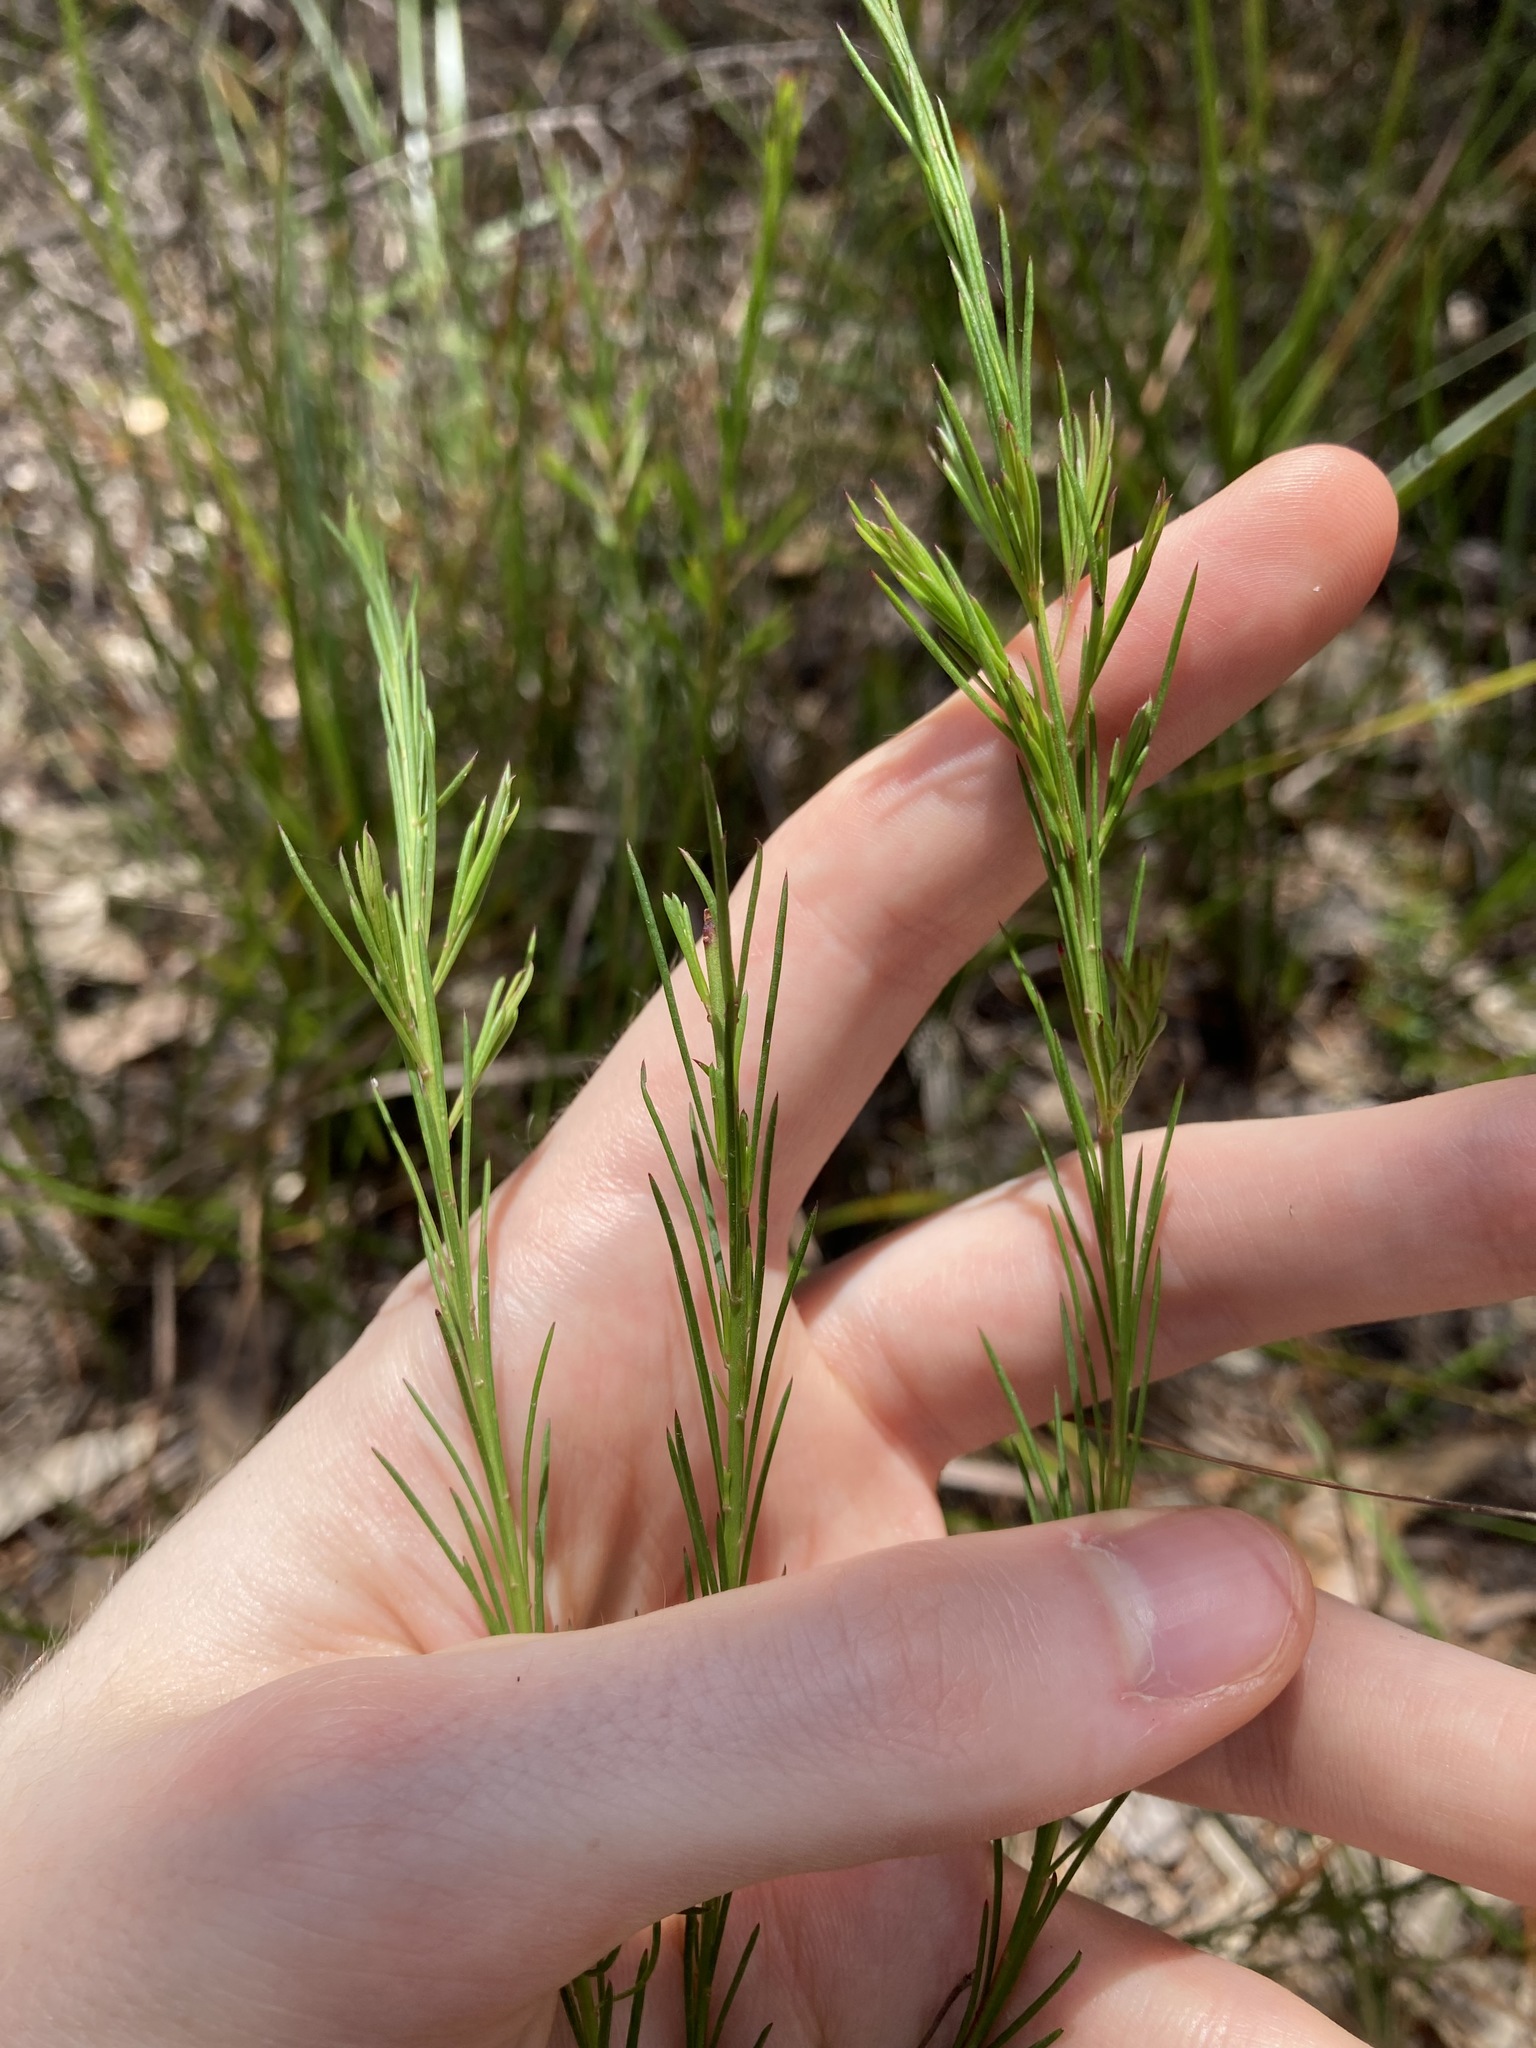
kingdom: Plantae
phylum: Tracheophyta
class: Magnoliopsida
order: Apiales
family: Apiaceae
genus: Platysace
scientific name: Platysace linearifolia
